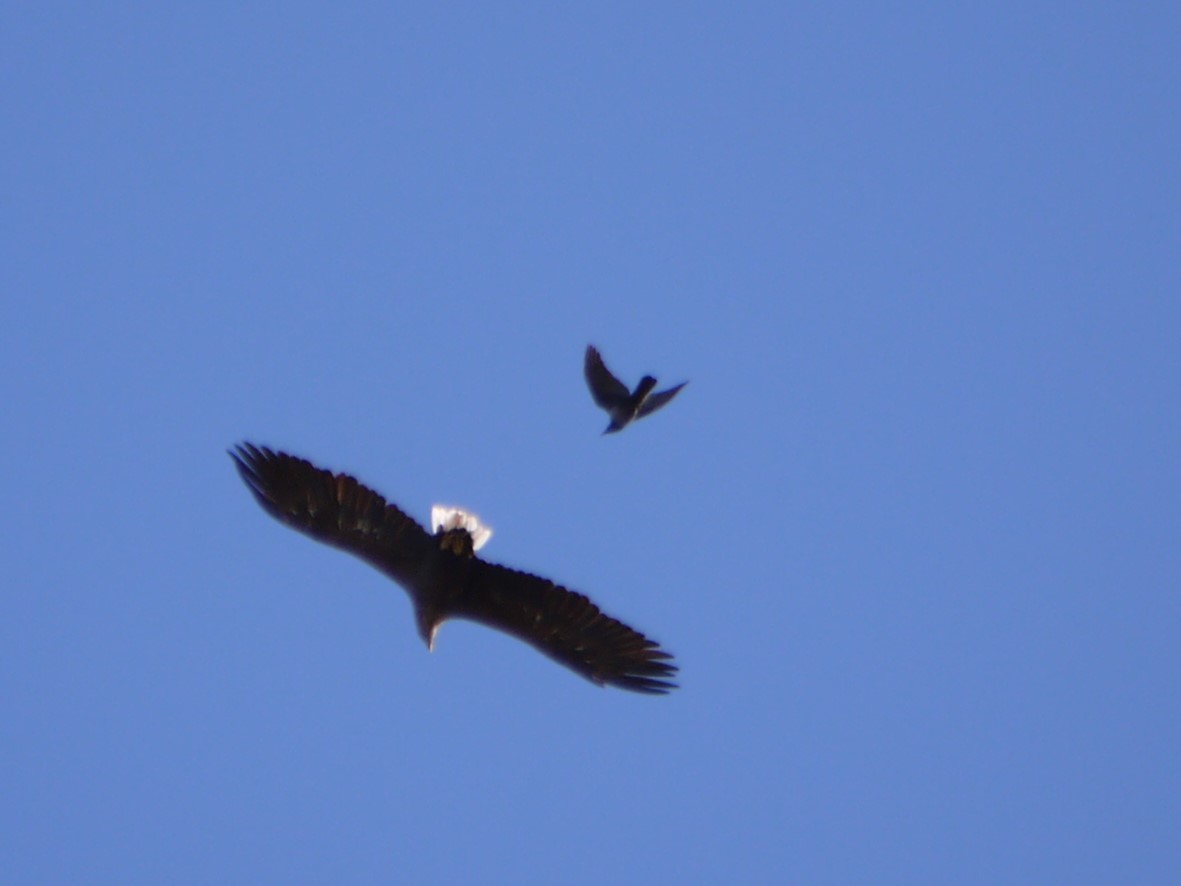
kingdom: Animalia
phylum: Chordata
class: Aves
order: Passeriformes
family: Corvidae
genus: Corvus
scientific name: Corvus cornix
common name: Hooded crow
